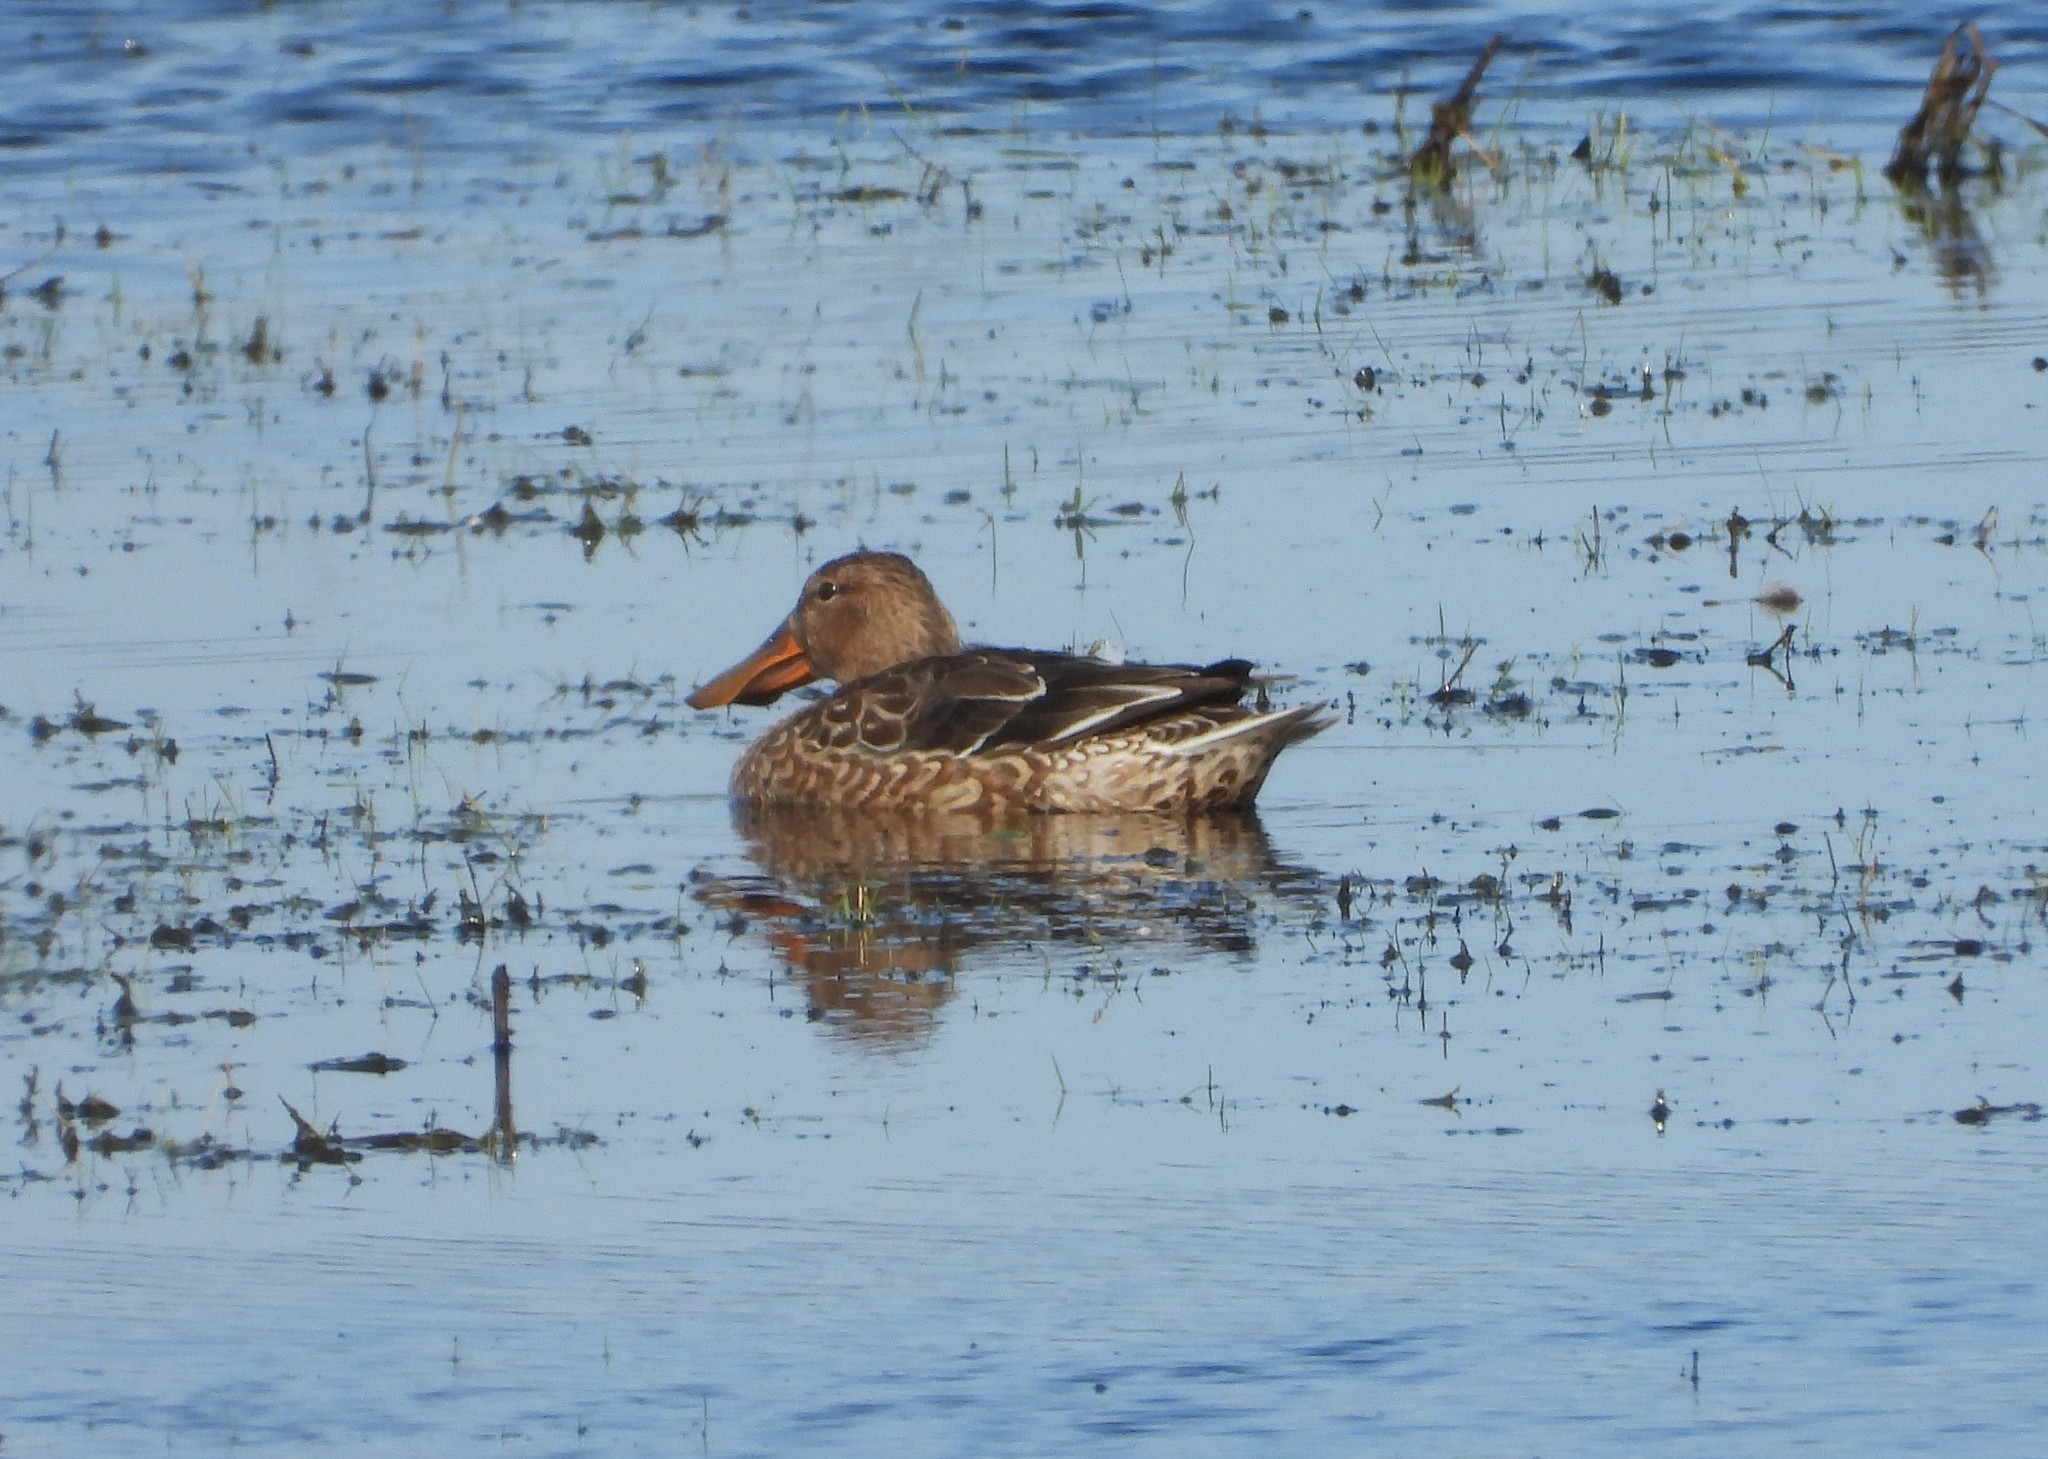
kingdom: Animalia
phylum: Chordata
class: Aves
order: Anseriformes
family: Anatidae
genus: Spatula
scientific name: Spatula clypeata
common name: Northern shoveler
